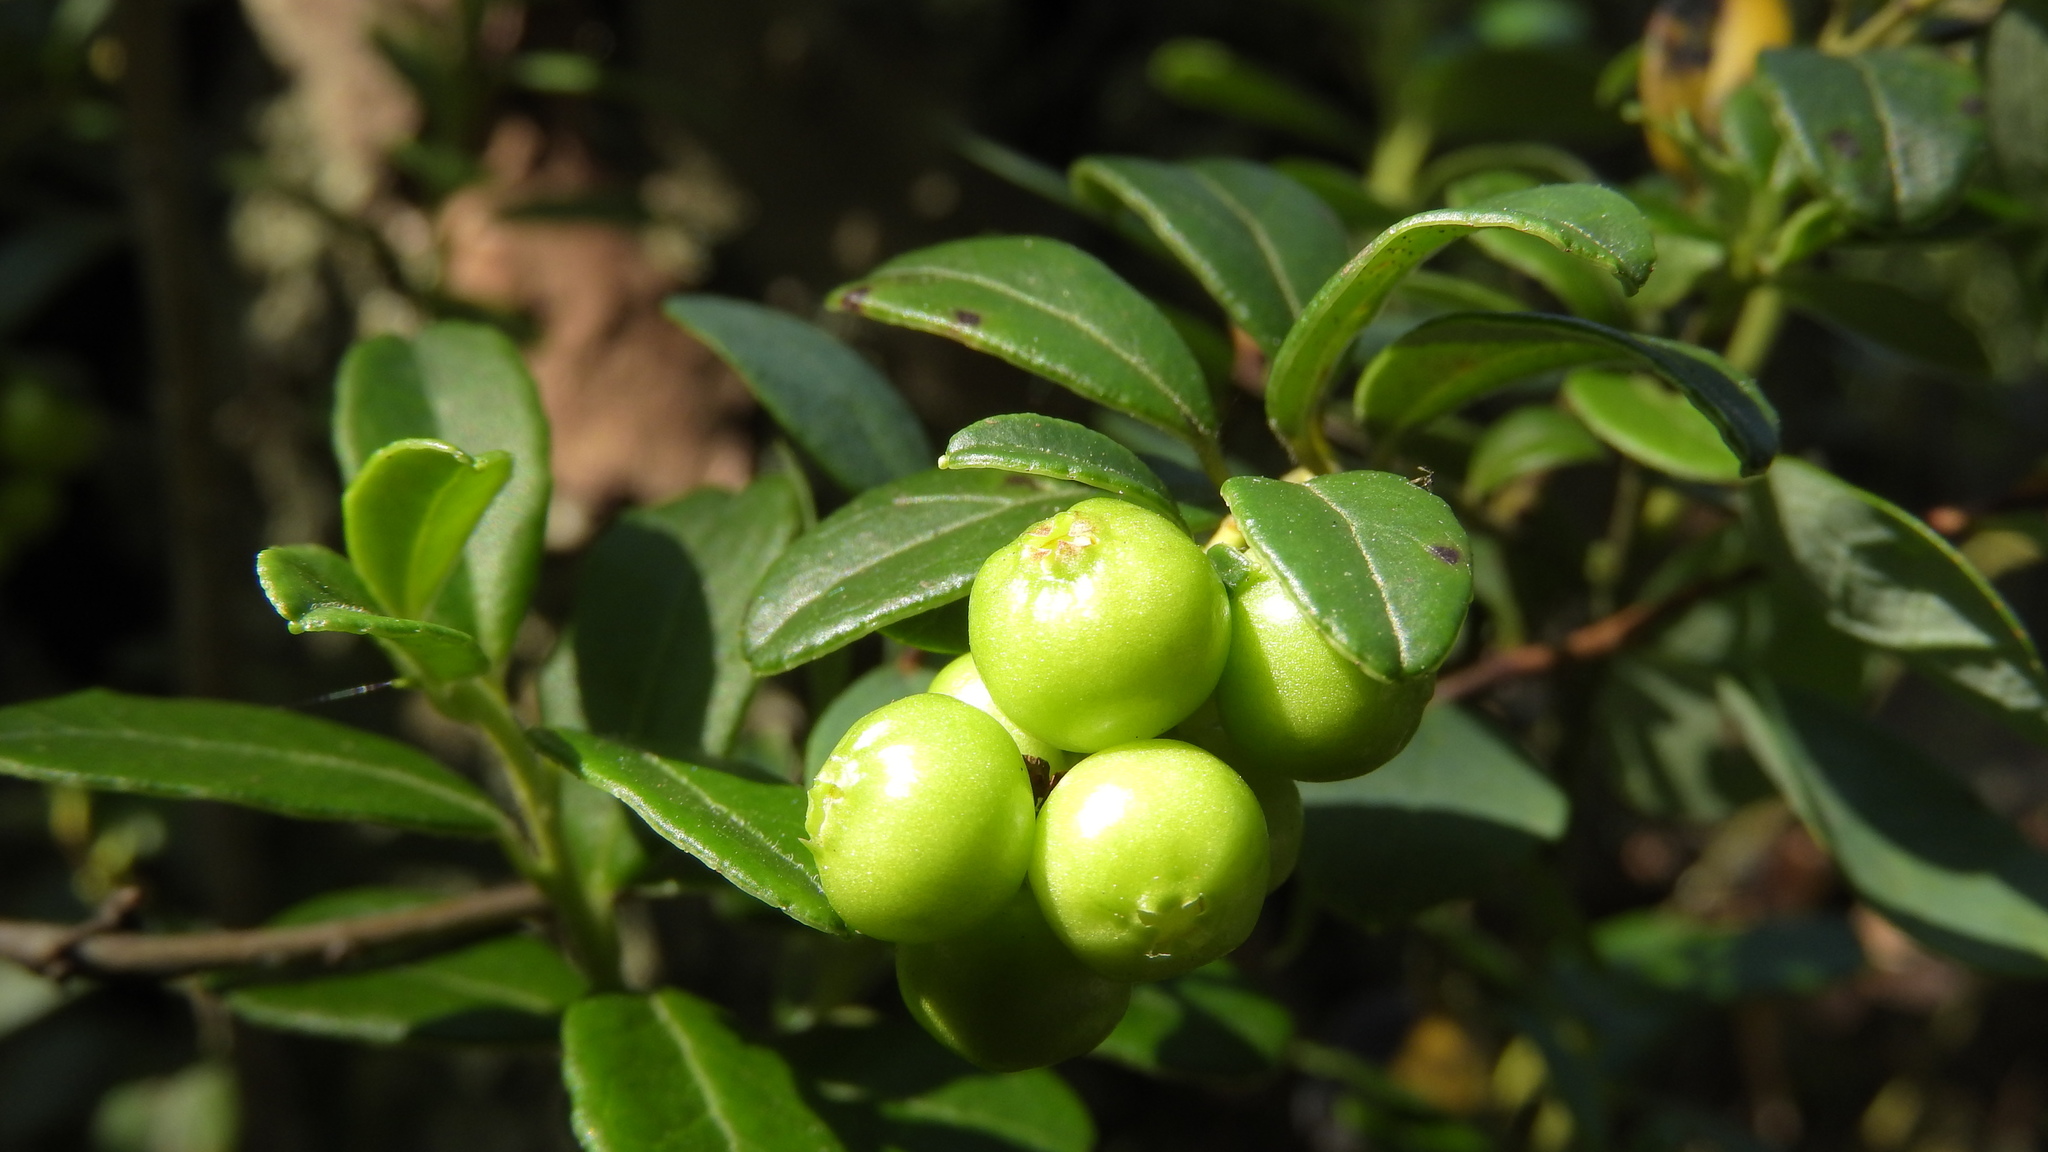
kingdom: Plantae
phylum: Tracheophyta
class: Magnoliopsida
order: Ericales
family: Ericaceae
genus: Vaccinium
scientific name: Vaccinium vitis-idaea
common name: Cowberry
